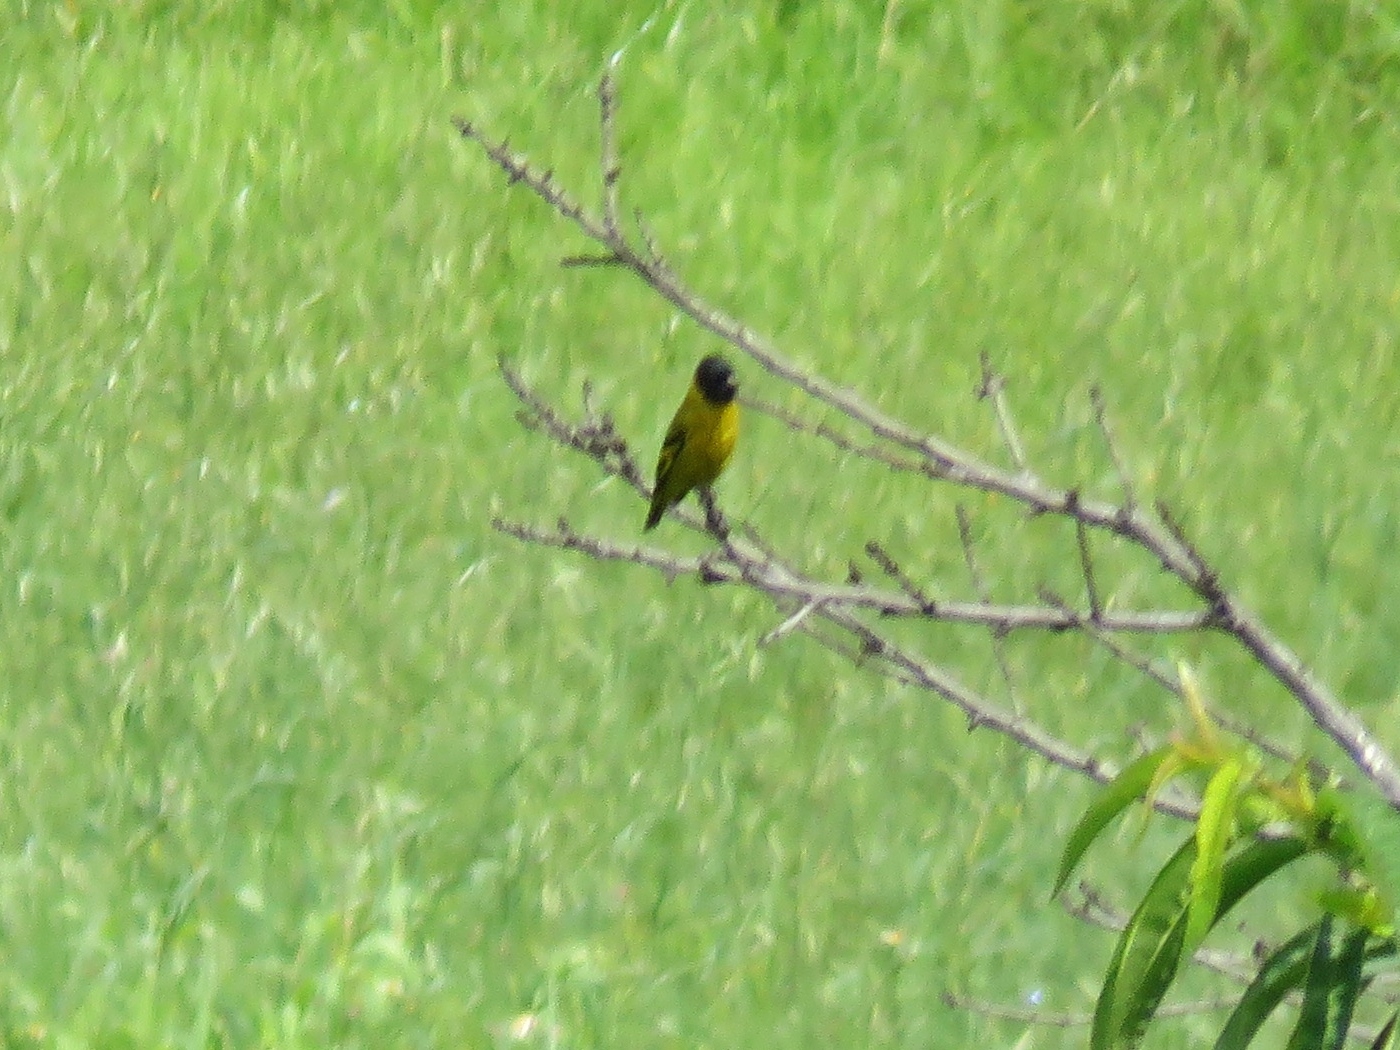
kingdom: Animalia
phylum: Chordata
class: Aves
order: Passeriformes
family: Fringillidae
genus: Spinus
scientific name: Spinus magellanicus
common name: Hooded siskin
